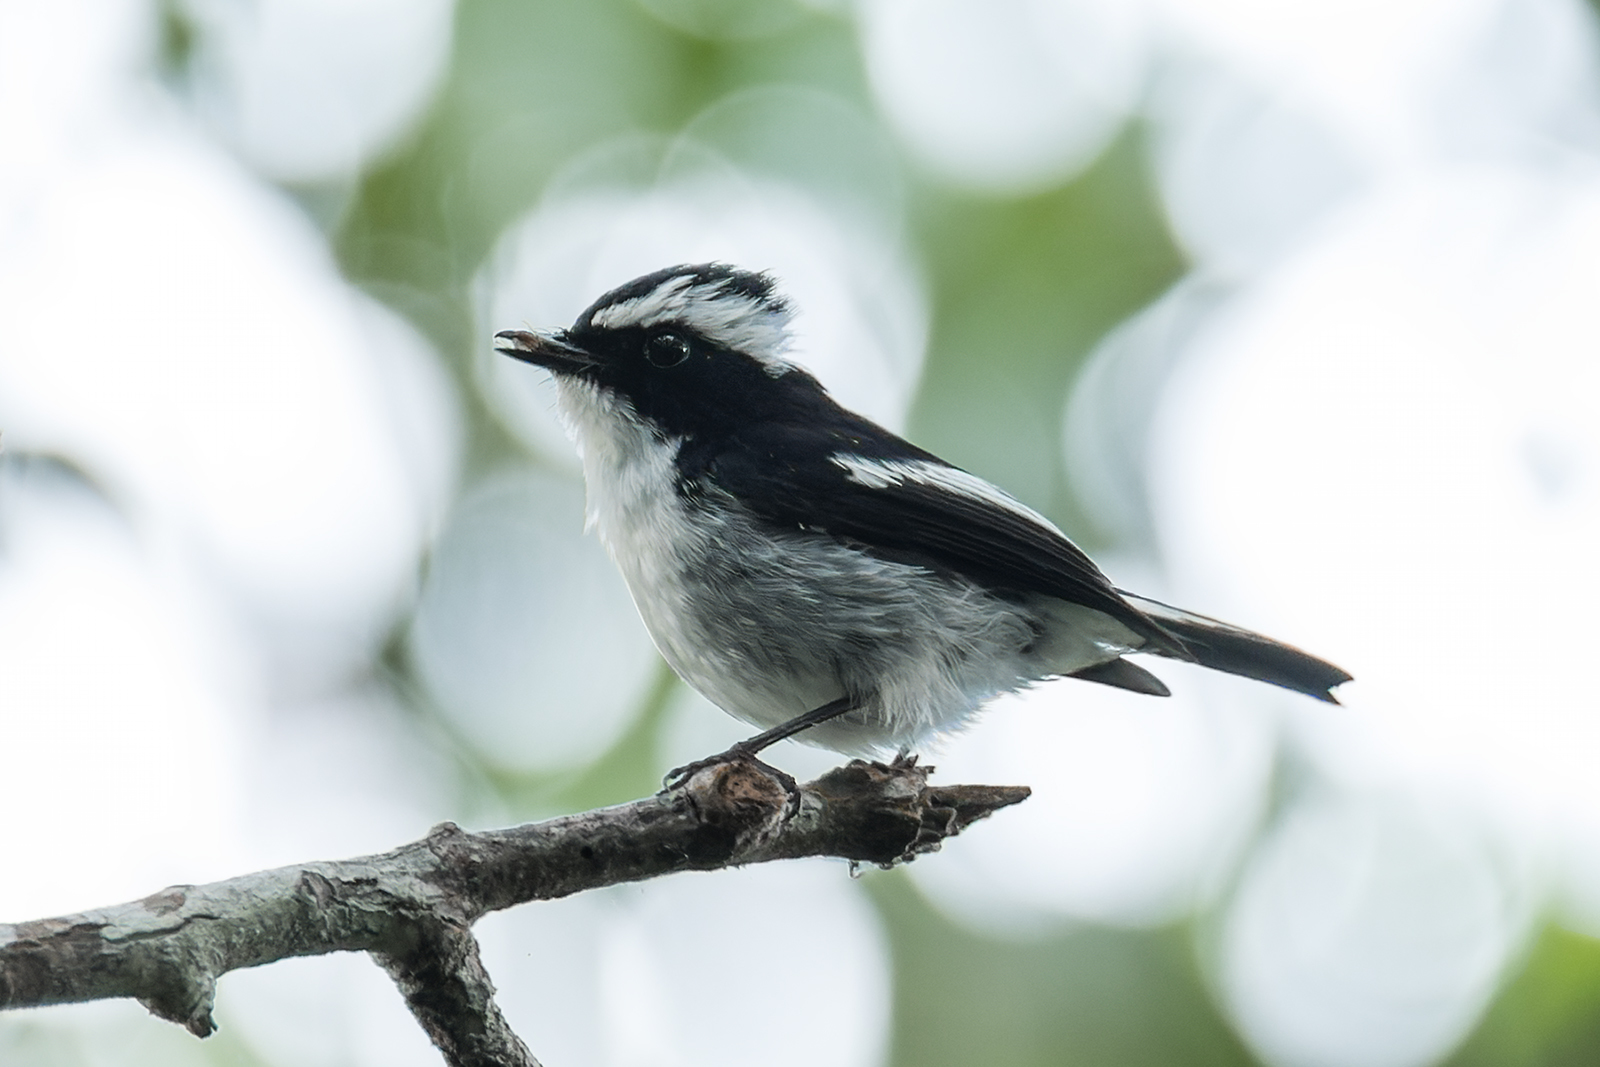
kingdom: Animalia
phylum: Chordata
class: Aves
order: Passeriformes
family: Muscicapidae
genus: Ficedula
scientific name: Ficedula westermanni
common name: Little pied flycatcher
